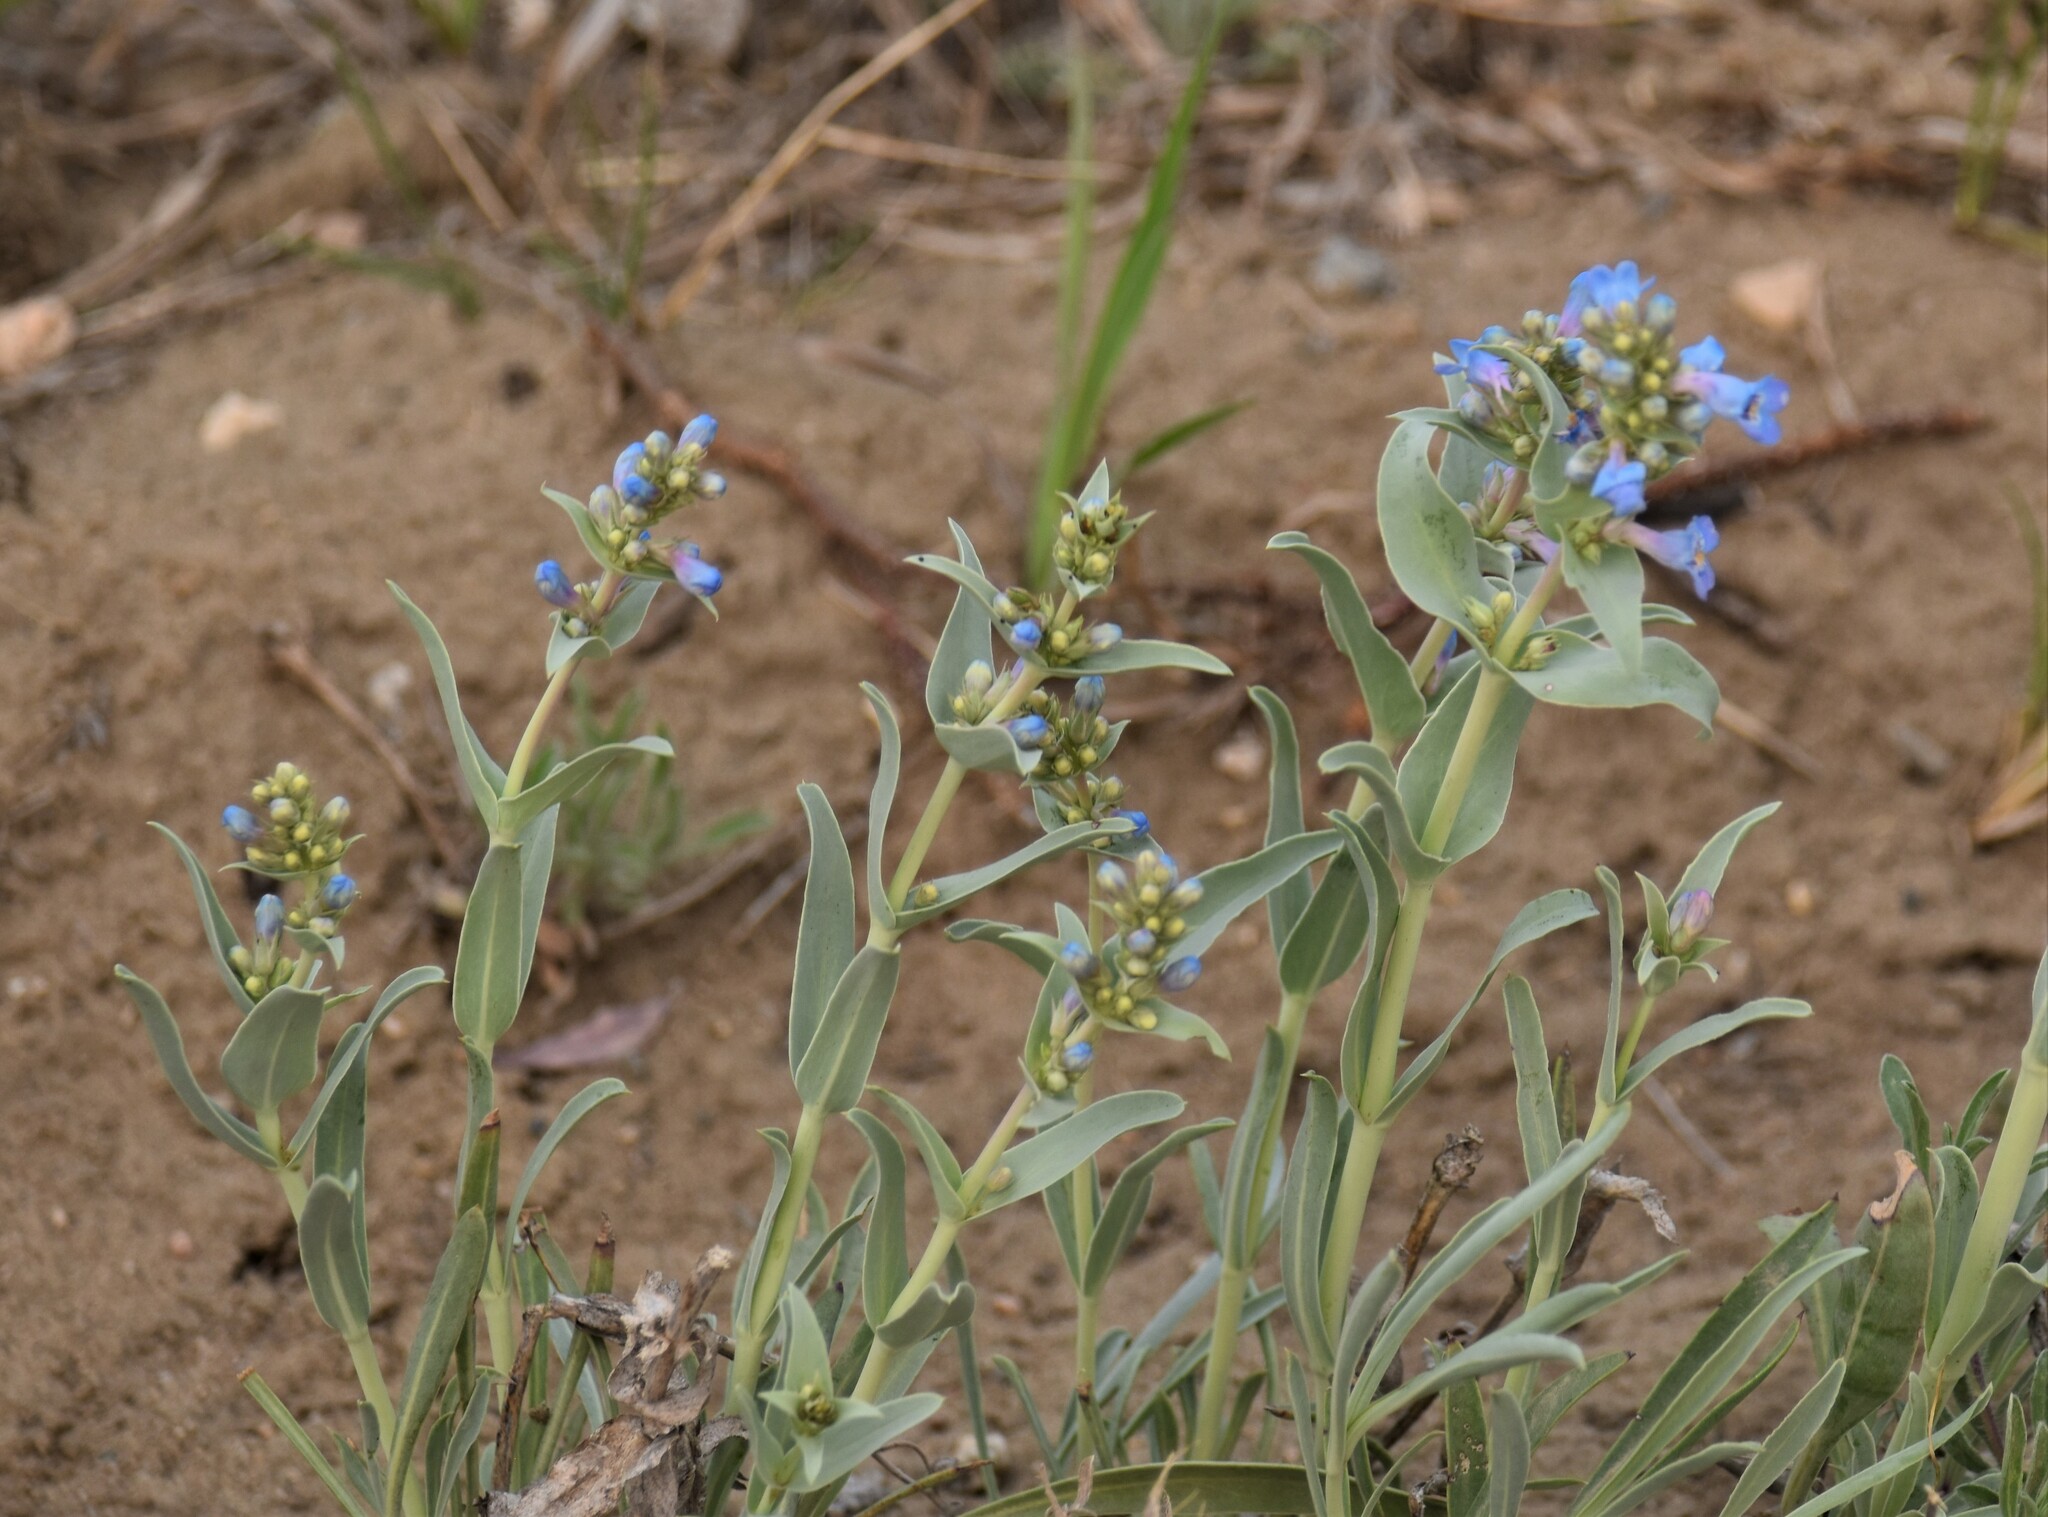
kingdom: Plantae
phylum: Tracheophyta
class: Magnoliopsida
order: Lamiales
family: Plantaginaceae
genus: Penstemon
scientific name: Penstemon nitidus
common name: Shining penstemon
